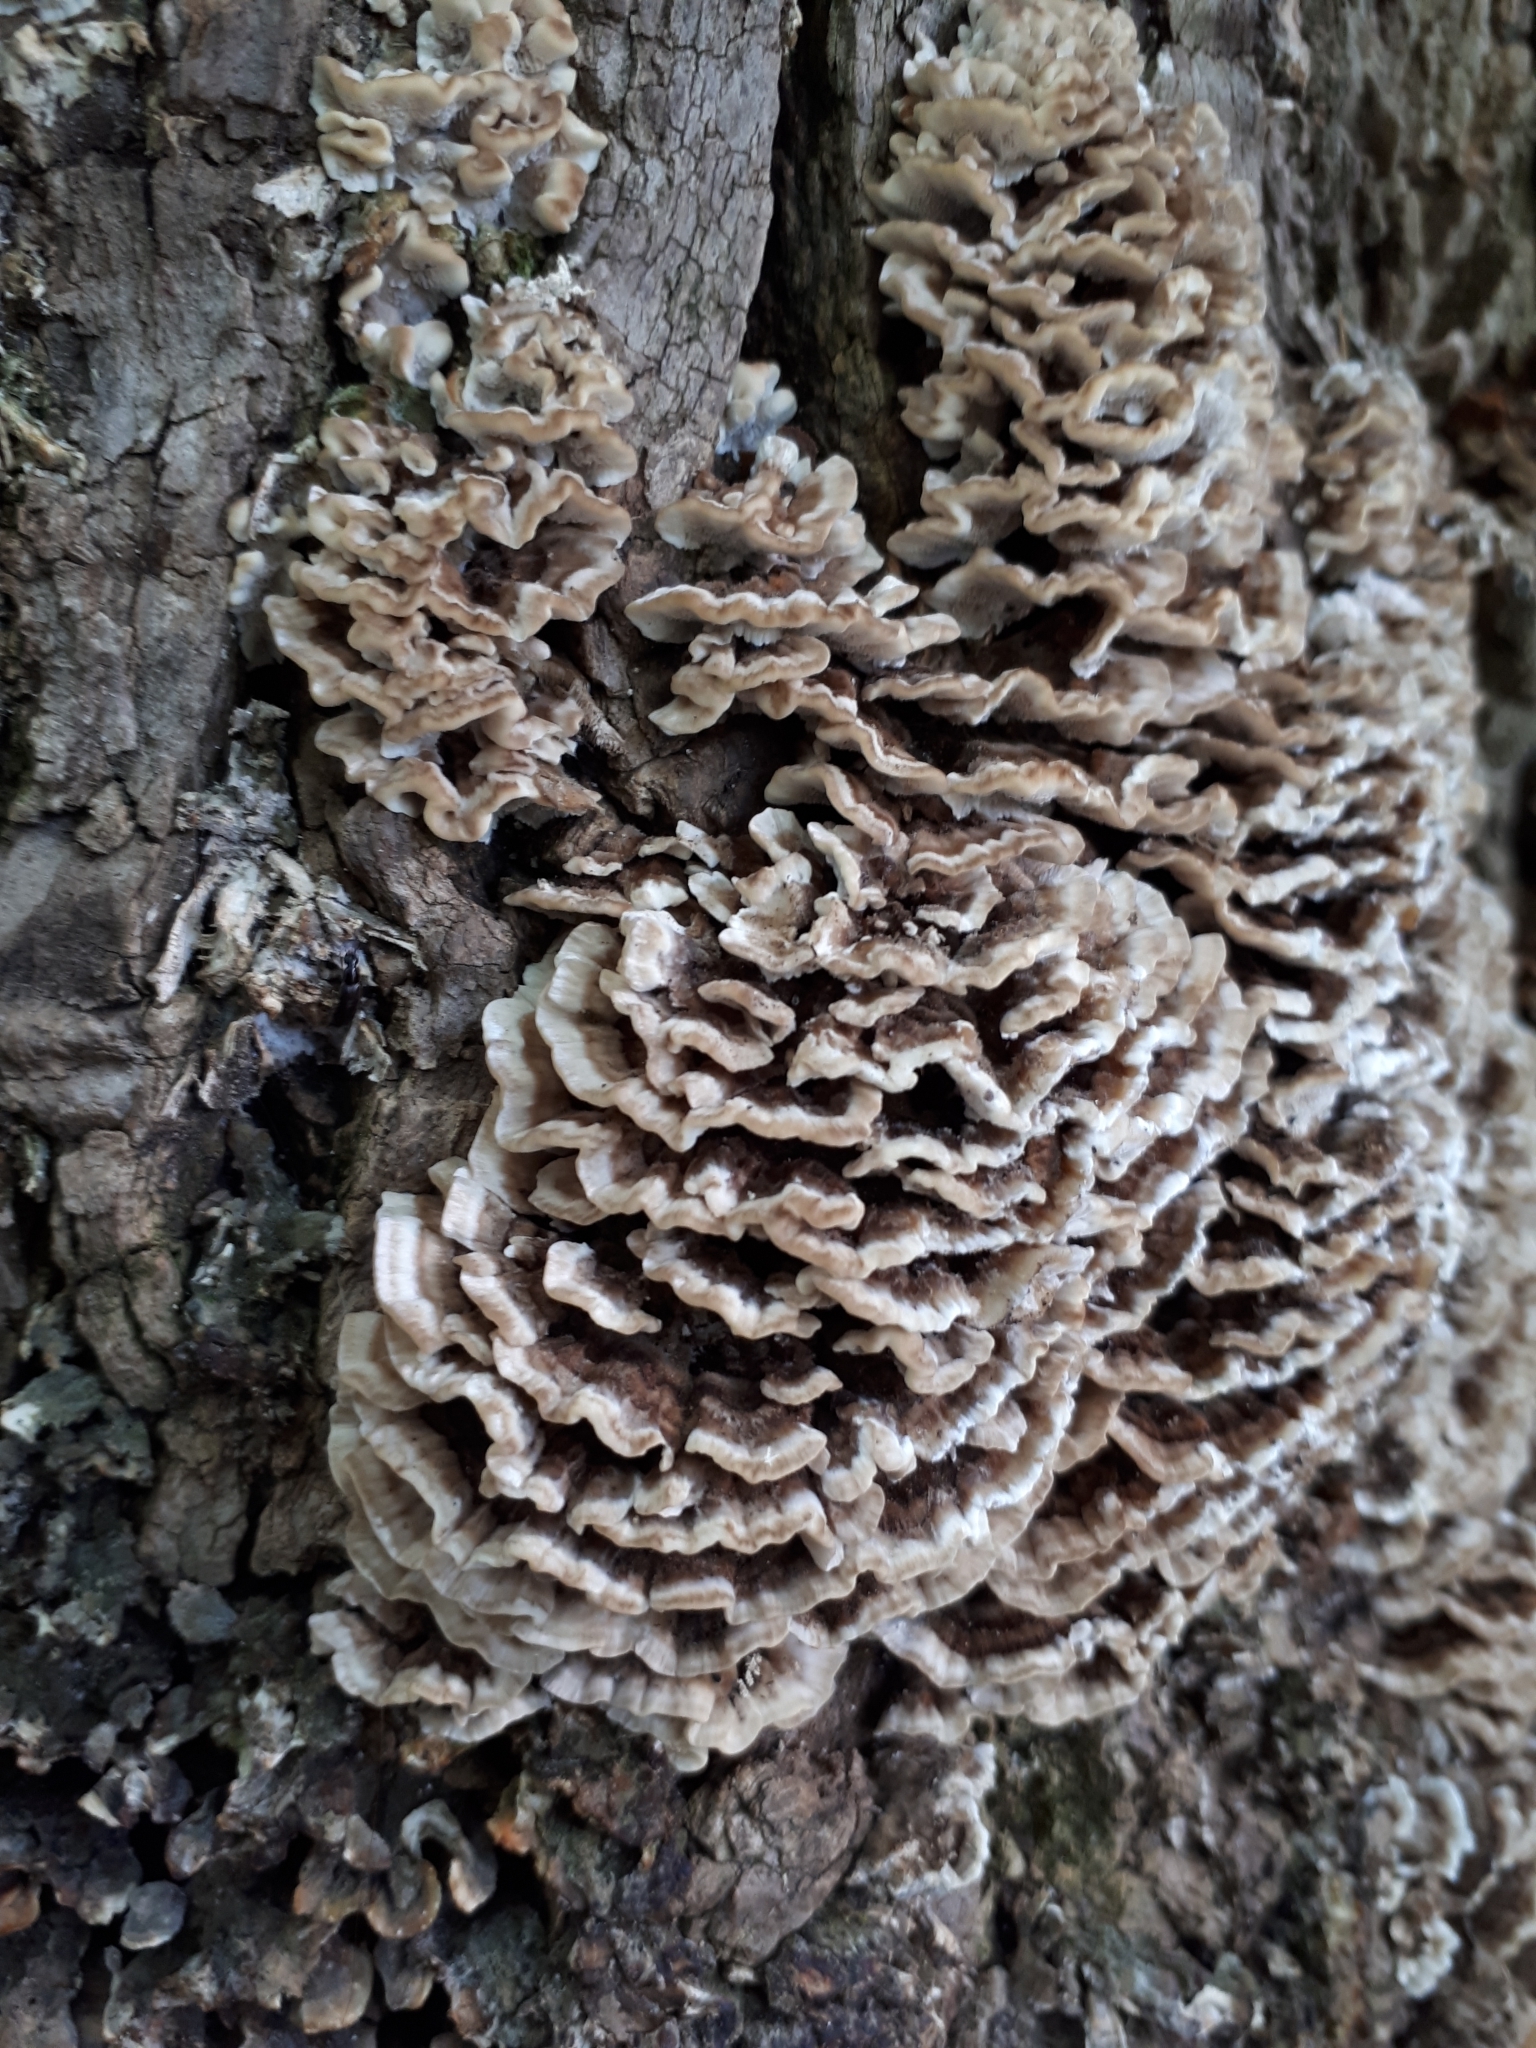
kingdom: Fungi
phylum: Basidiomycota
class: Agaricomycetes
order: Polyporales
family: Polyporaceae
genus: Trametes
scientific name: Trametes versicolor
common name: Turkeytail
